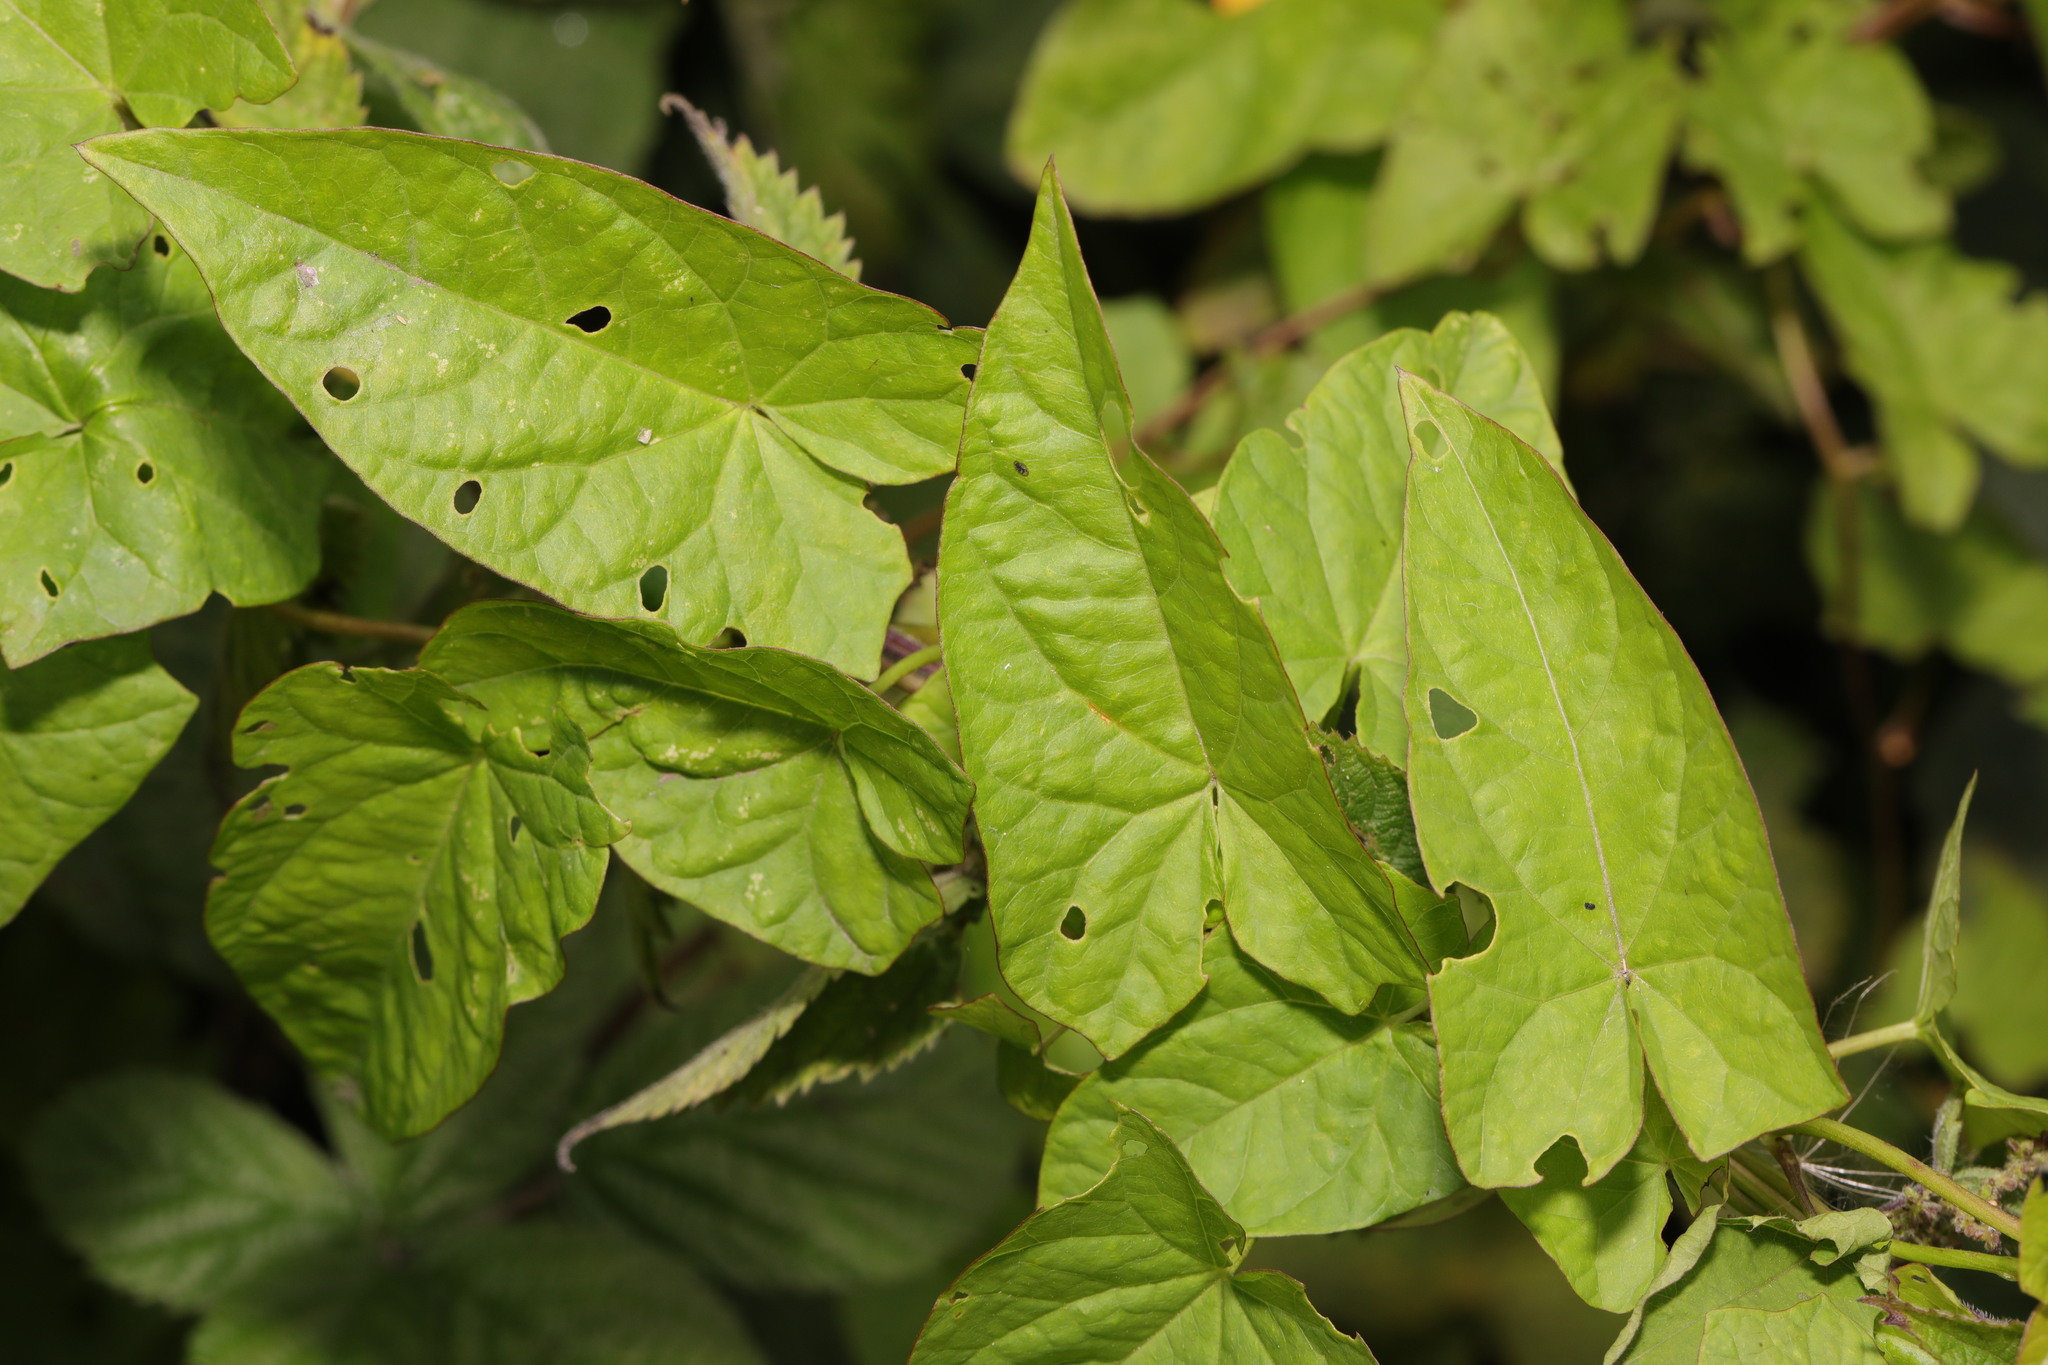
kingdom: Plantae
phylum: Tracheophyta
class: Magnoliopsida
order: Solanales
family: Convolvulaceae
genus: Calystegia
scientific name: Calystegia
